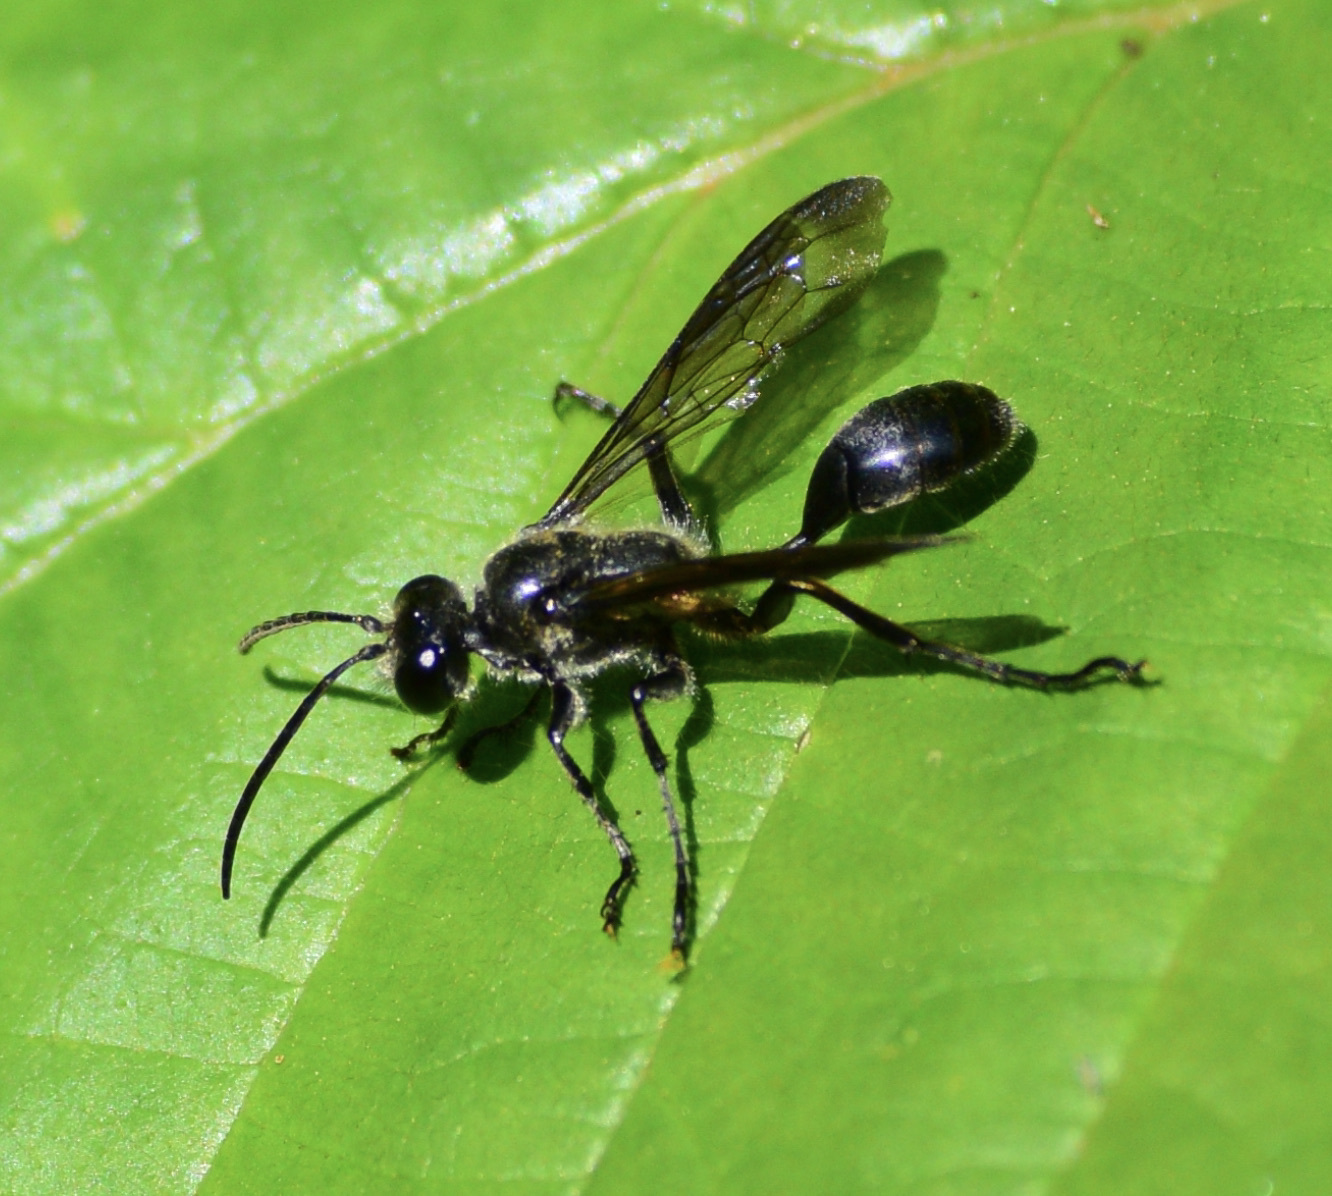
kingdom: Animalia
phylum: Arthropoda
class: Insecta
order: Hymenoptera
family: Sphecidae
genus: Isodontia
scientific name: Isodontia mexicana
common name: Mud dauber
